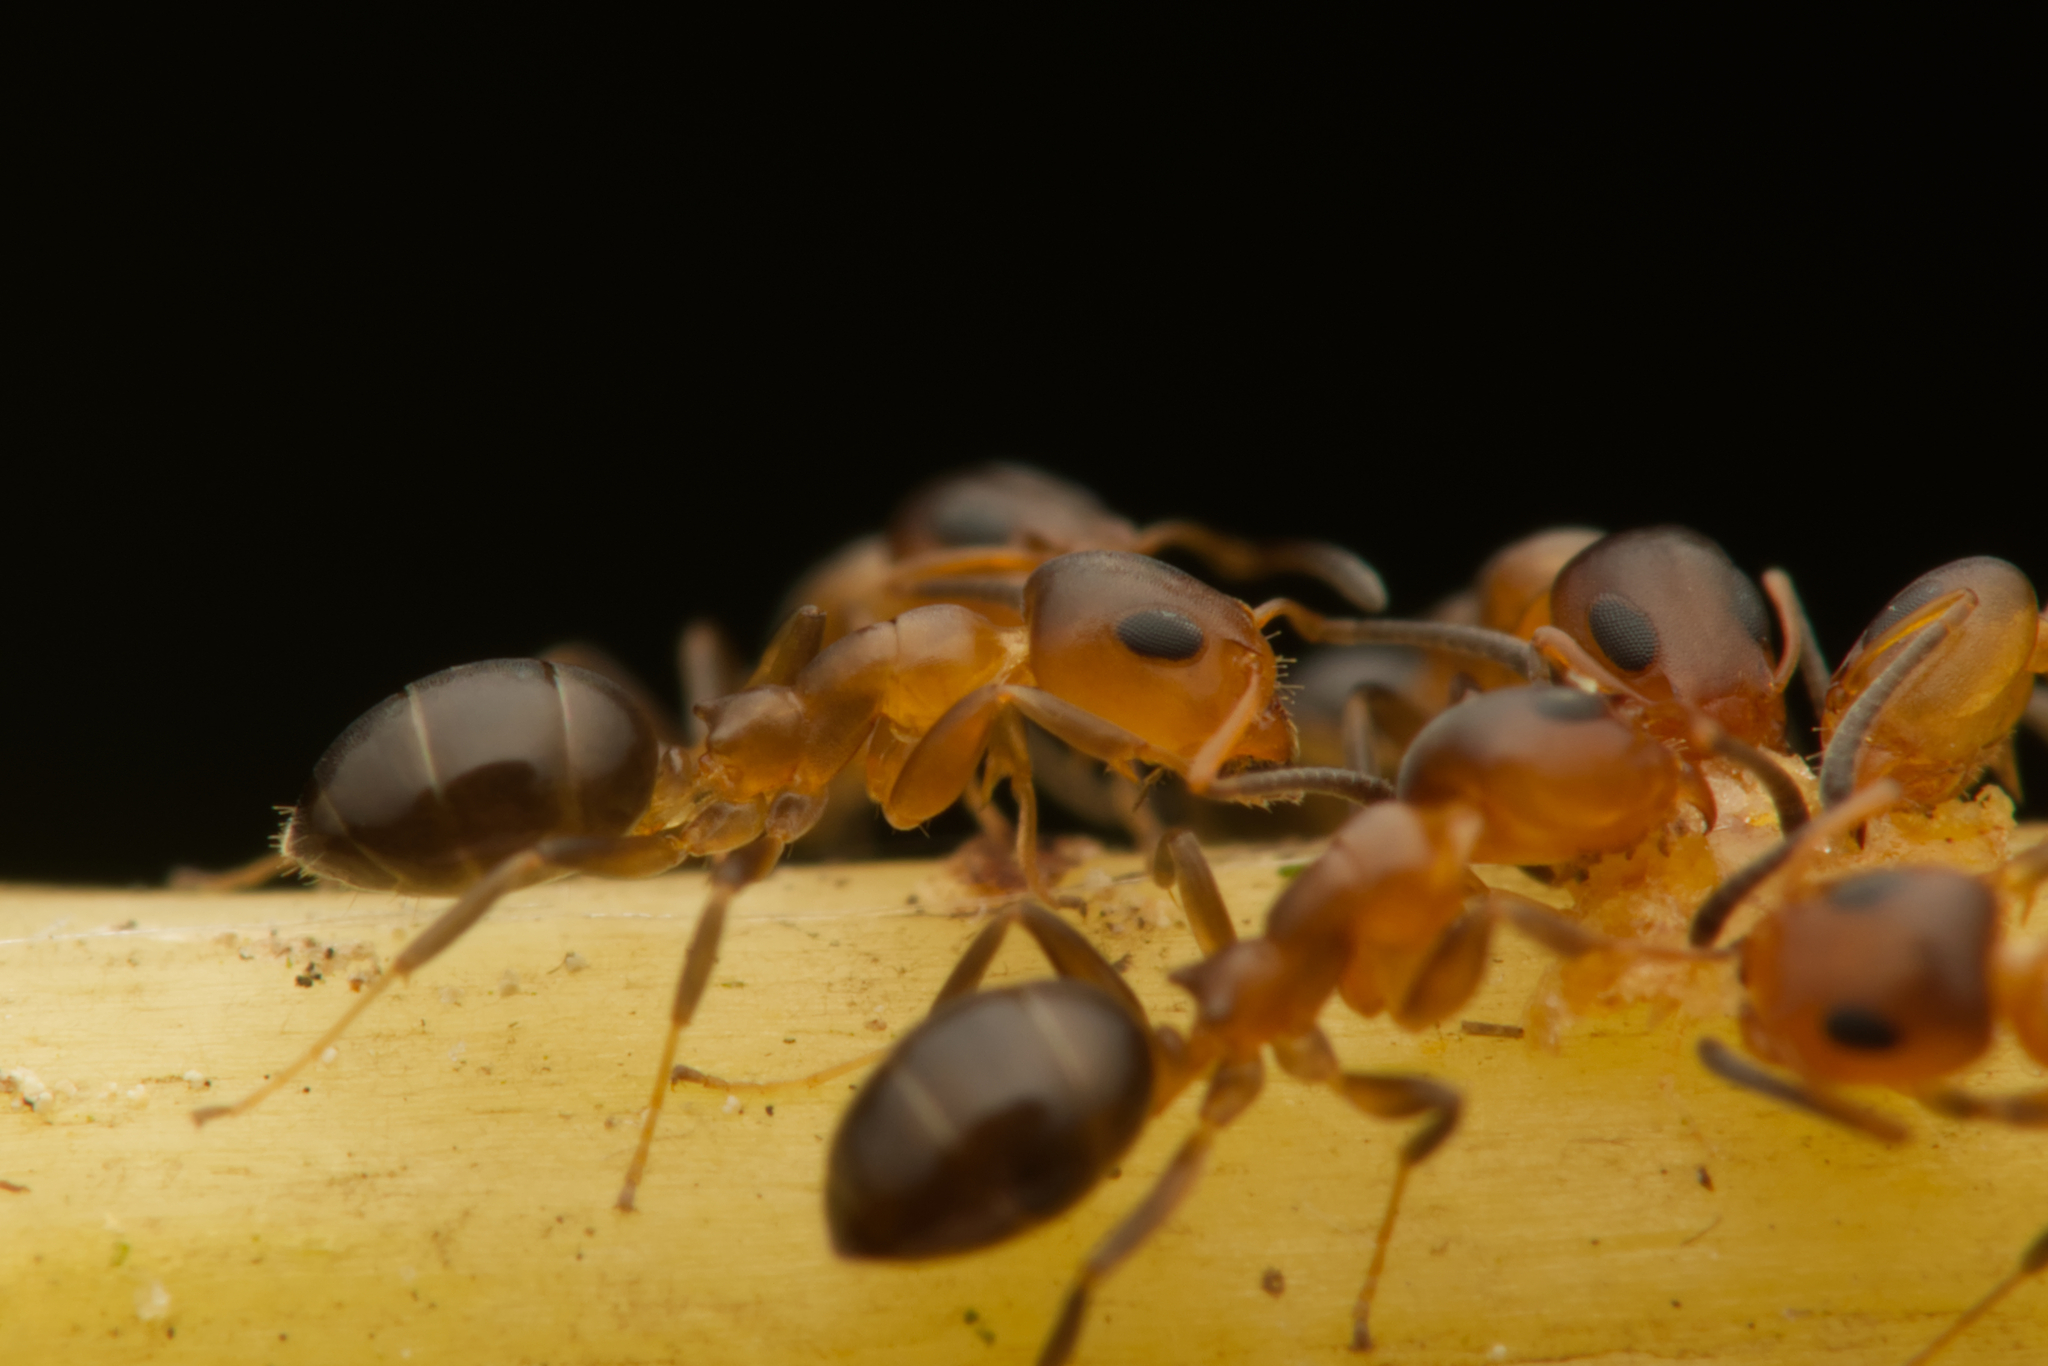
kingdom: Animalia
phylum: Arthropoda
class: Insecta
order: Hymenoptera
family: Formicidae
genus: Turneria
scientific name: Turneria bidentata
